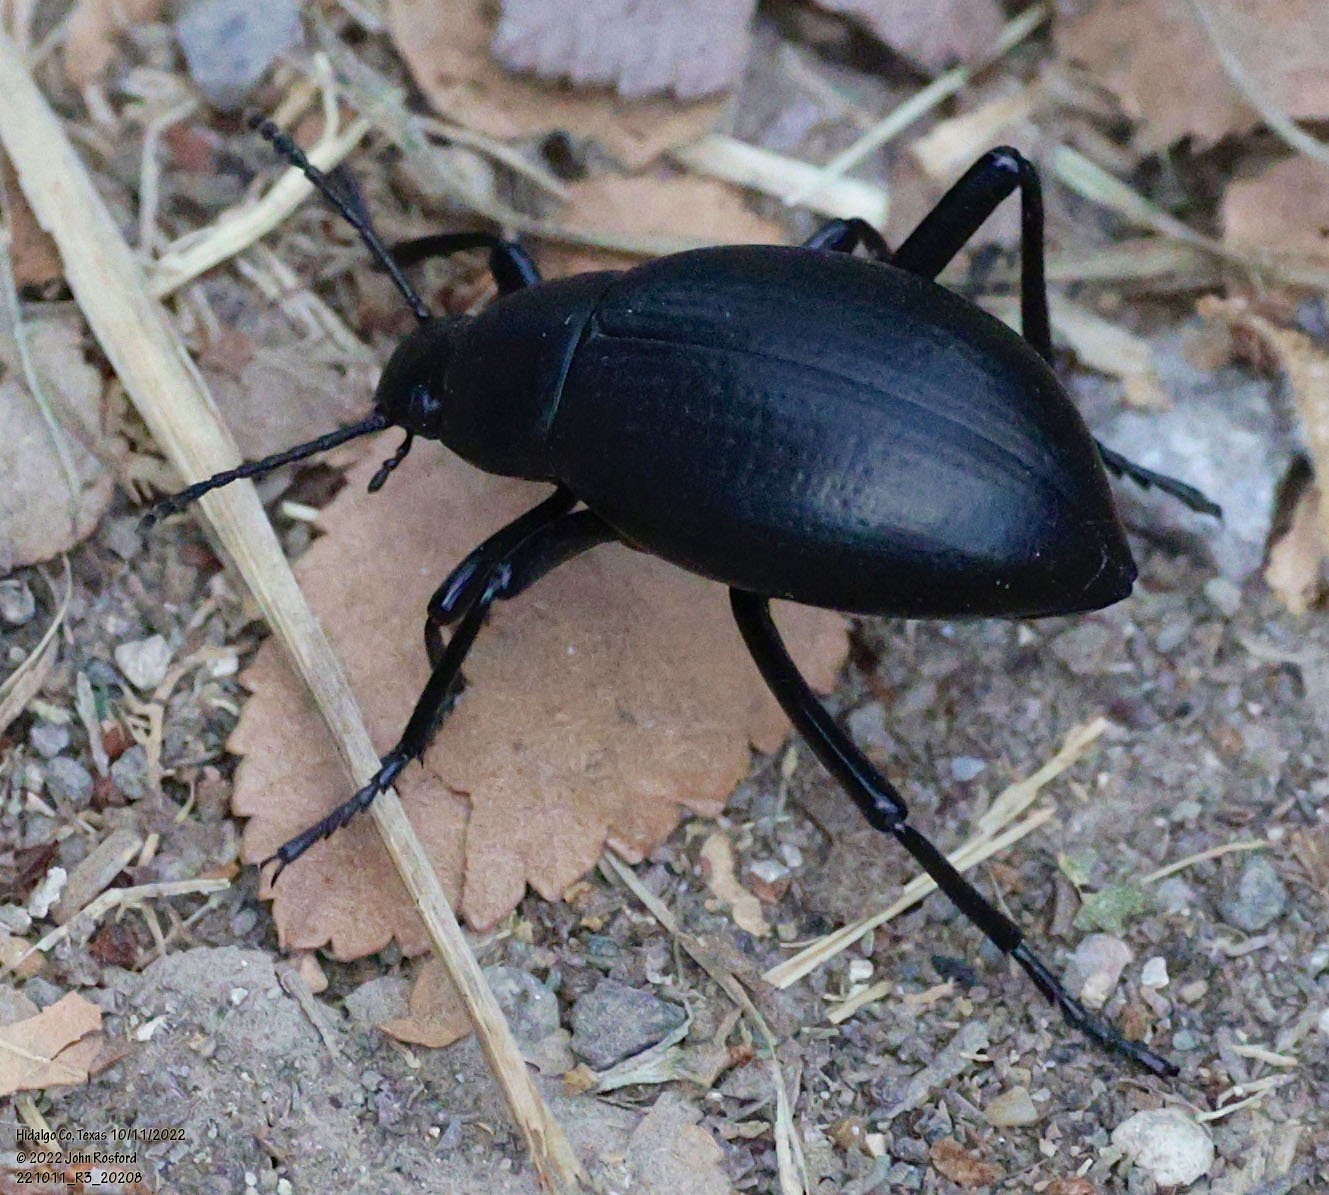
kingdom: Animalia
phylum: Arthropoda
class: Insecta
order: Coleoptera
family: Tenebrionidae
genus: Eleodes
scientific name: Eleodes goryi
